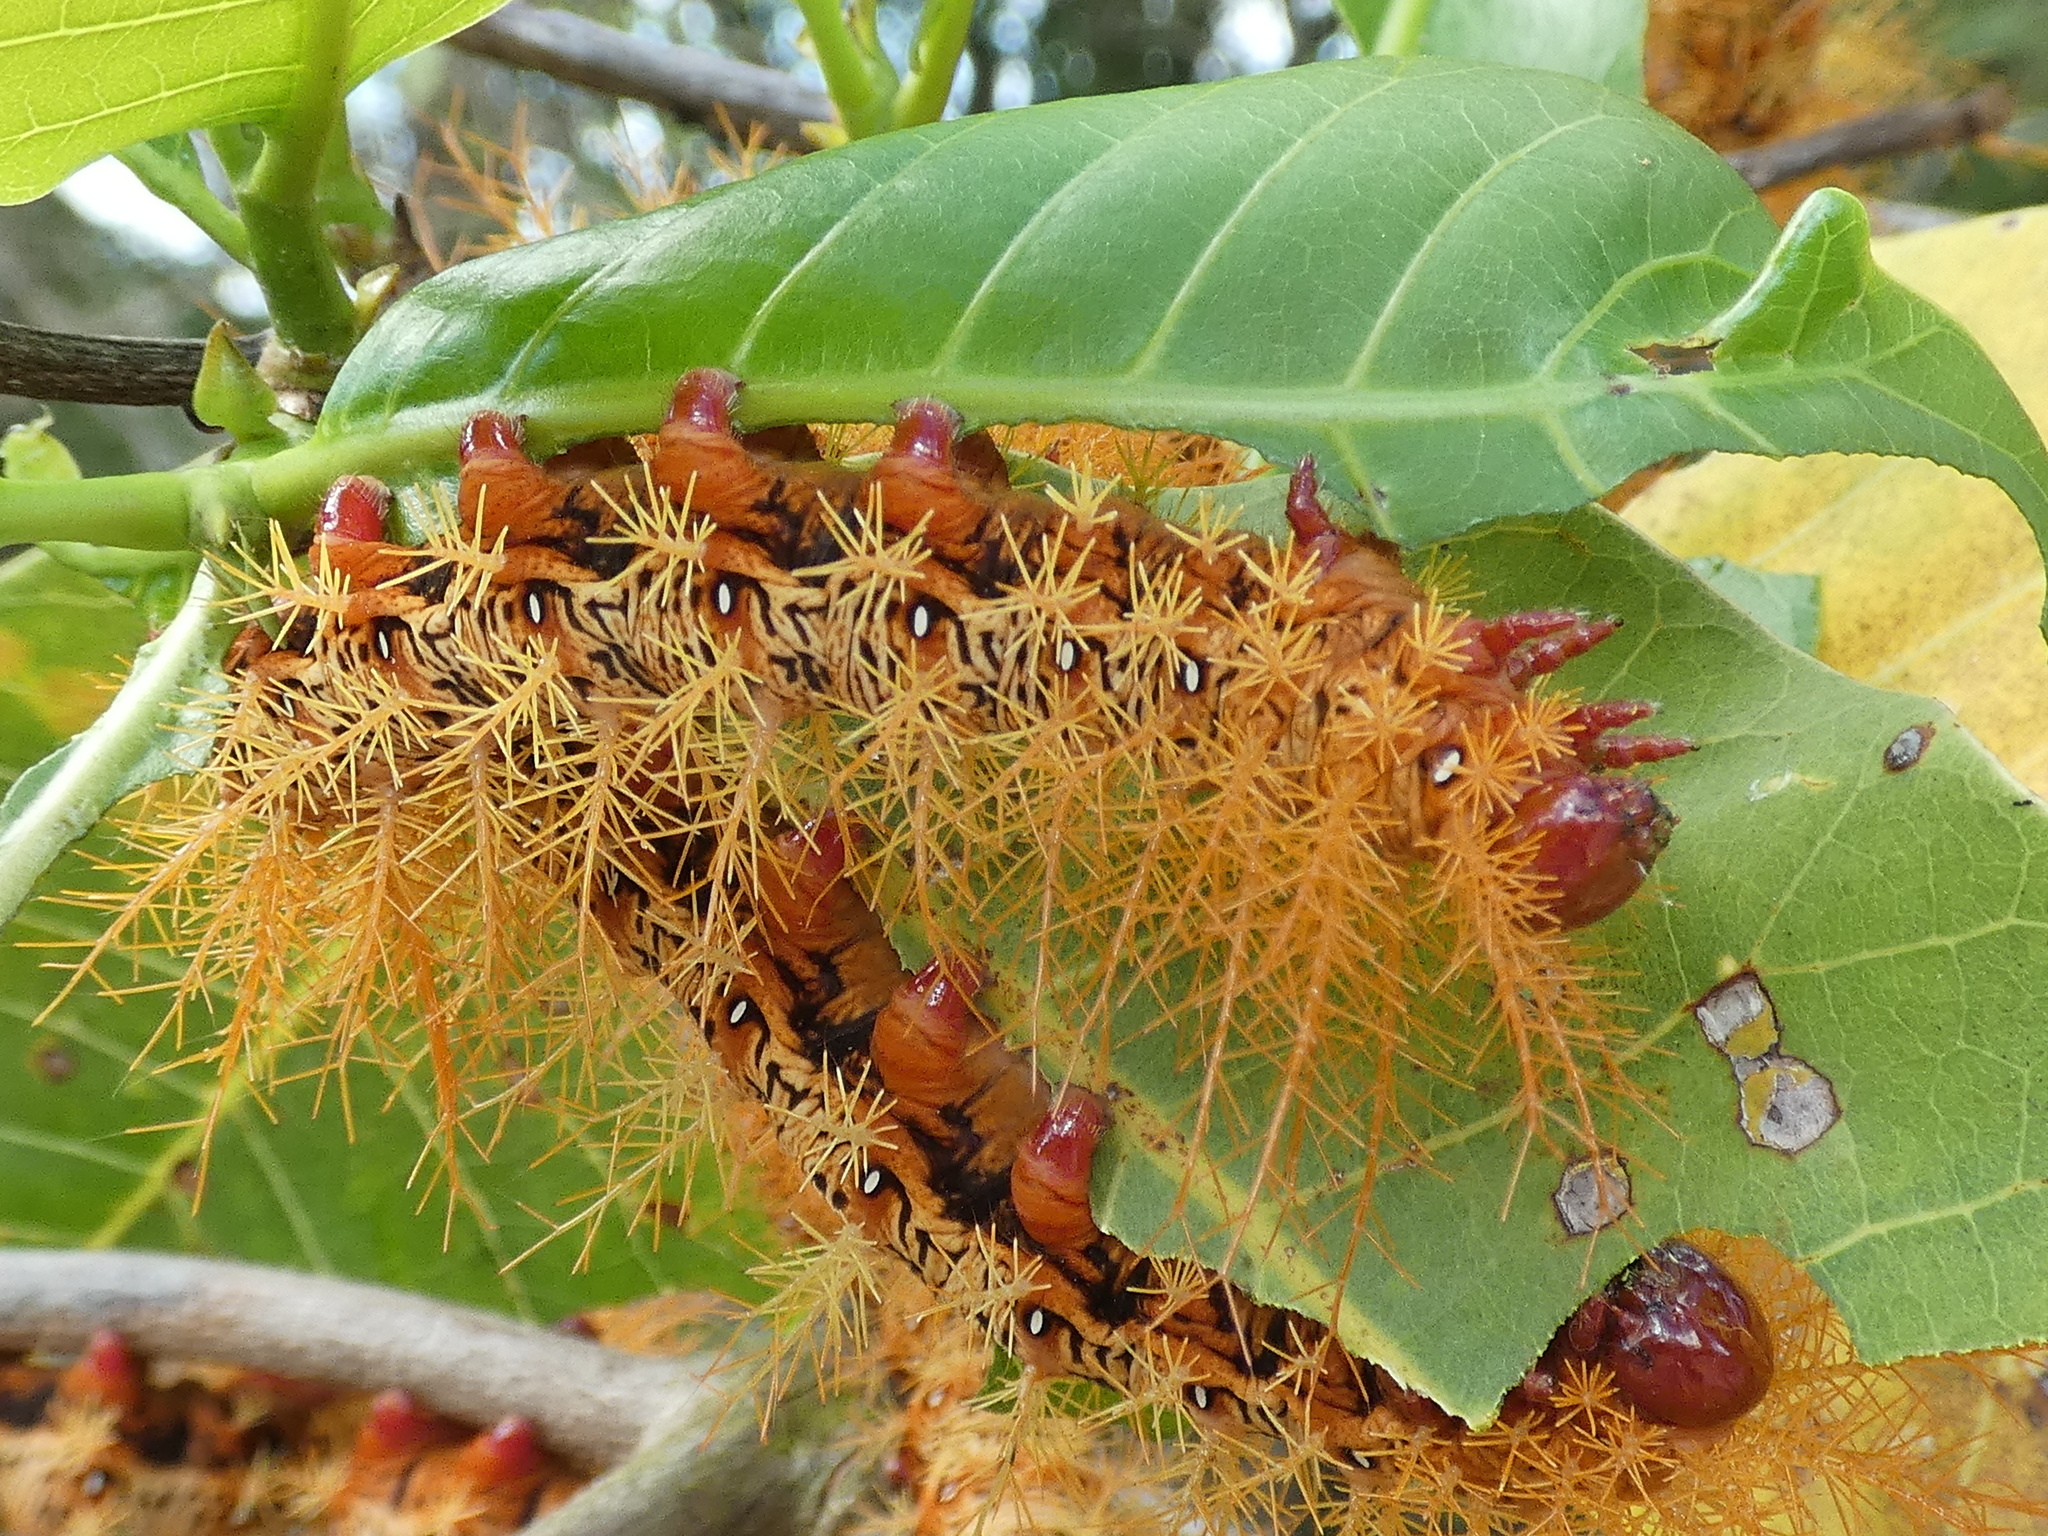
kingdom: Animalia
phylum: Arthropoda
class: Insecta
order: Lepidoptera
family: Saturniidae
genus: Dirphia
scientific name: Dirphia moderata
